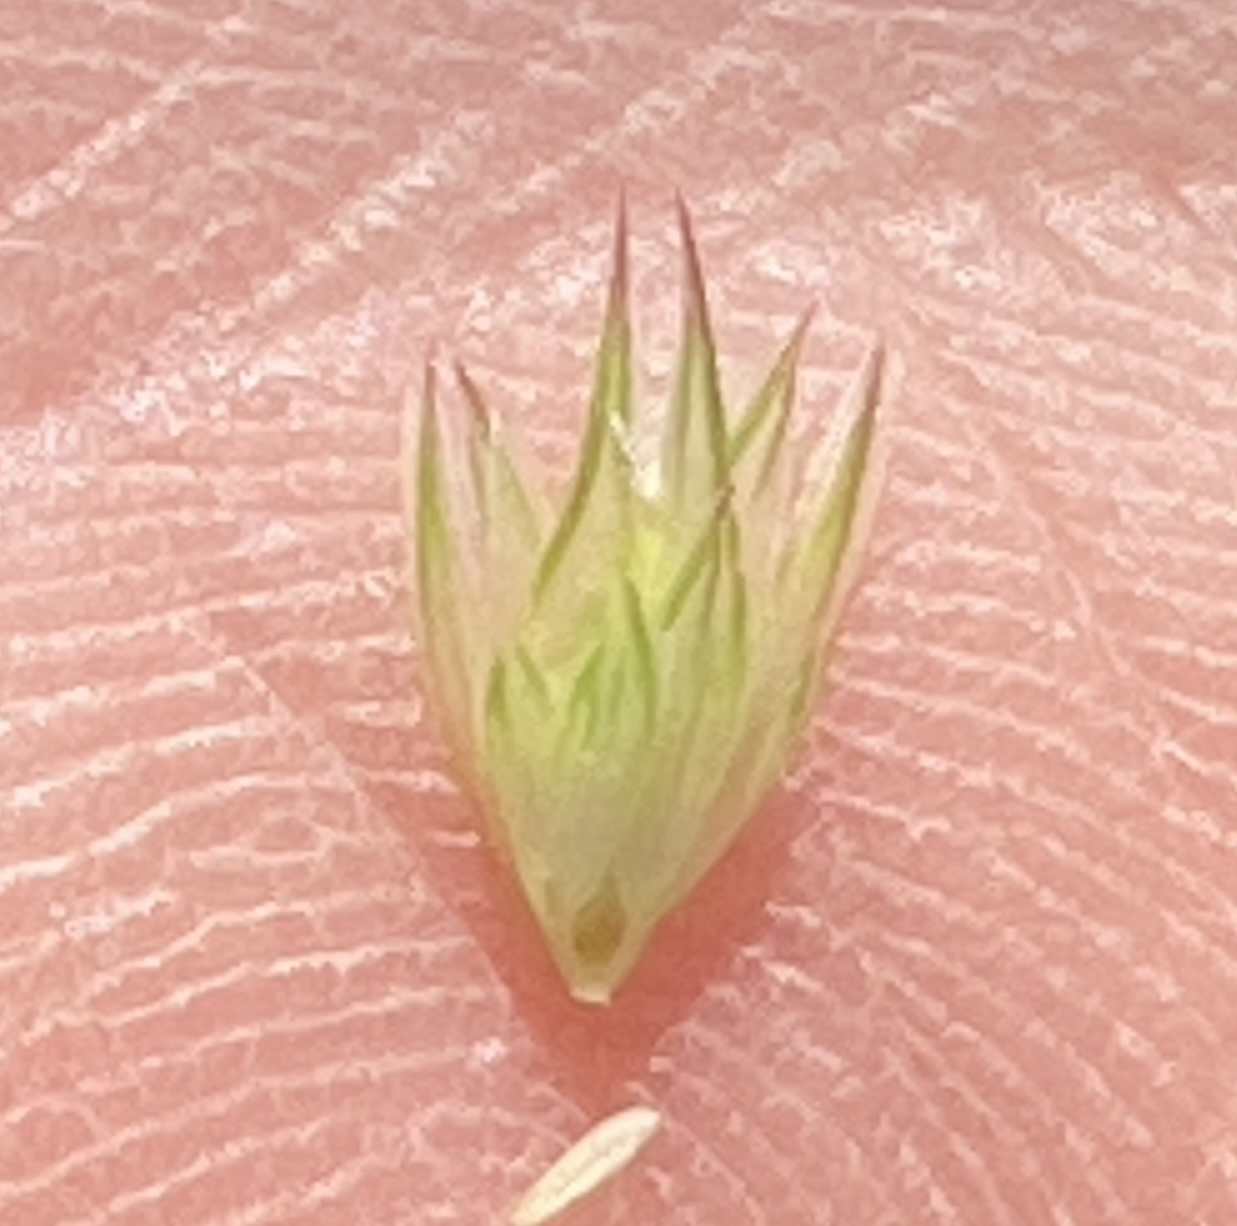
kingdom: Plantae
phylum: Tracheophyta
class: Liliopsida
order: Poales
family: Poaceae
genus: Phalaris
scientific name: Phalaris paradoxa
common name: Awned canary-grass
